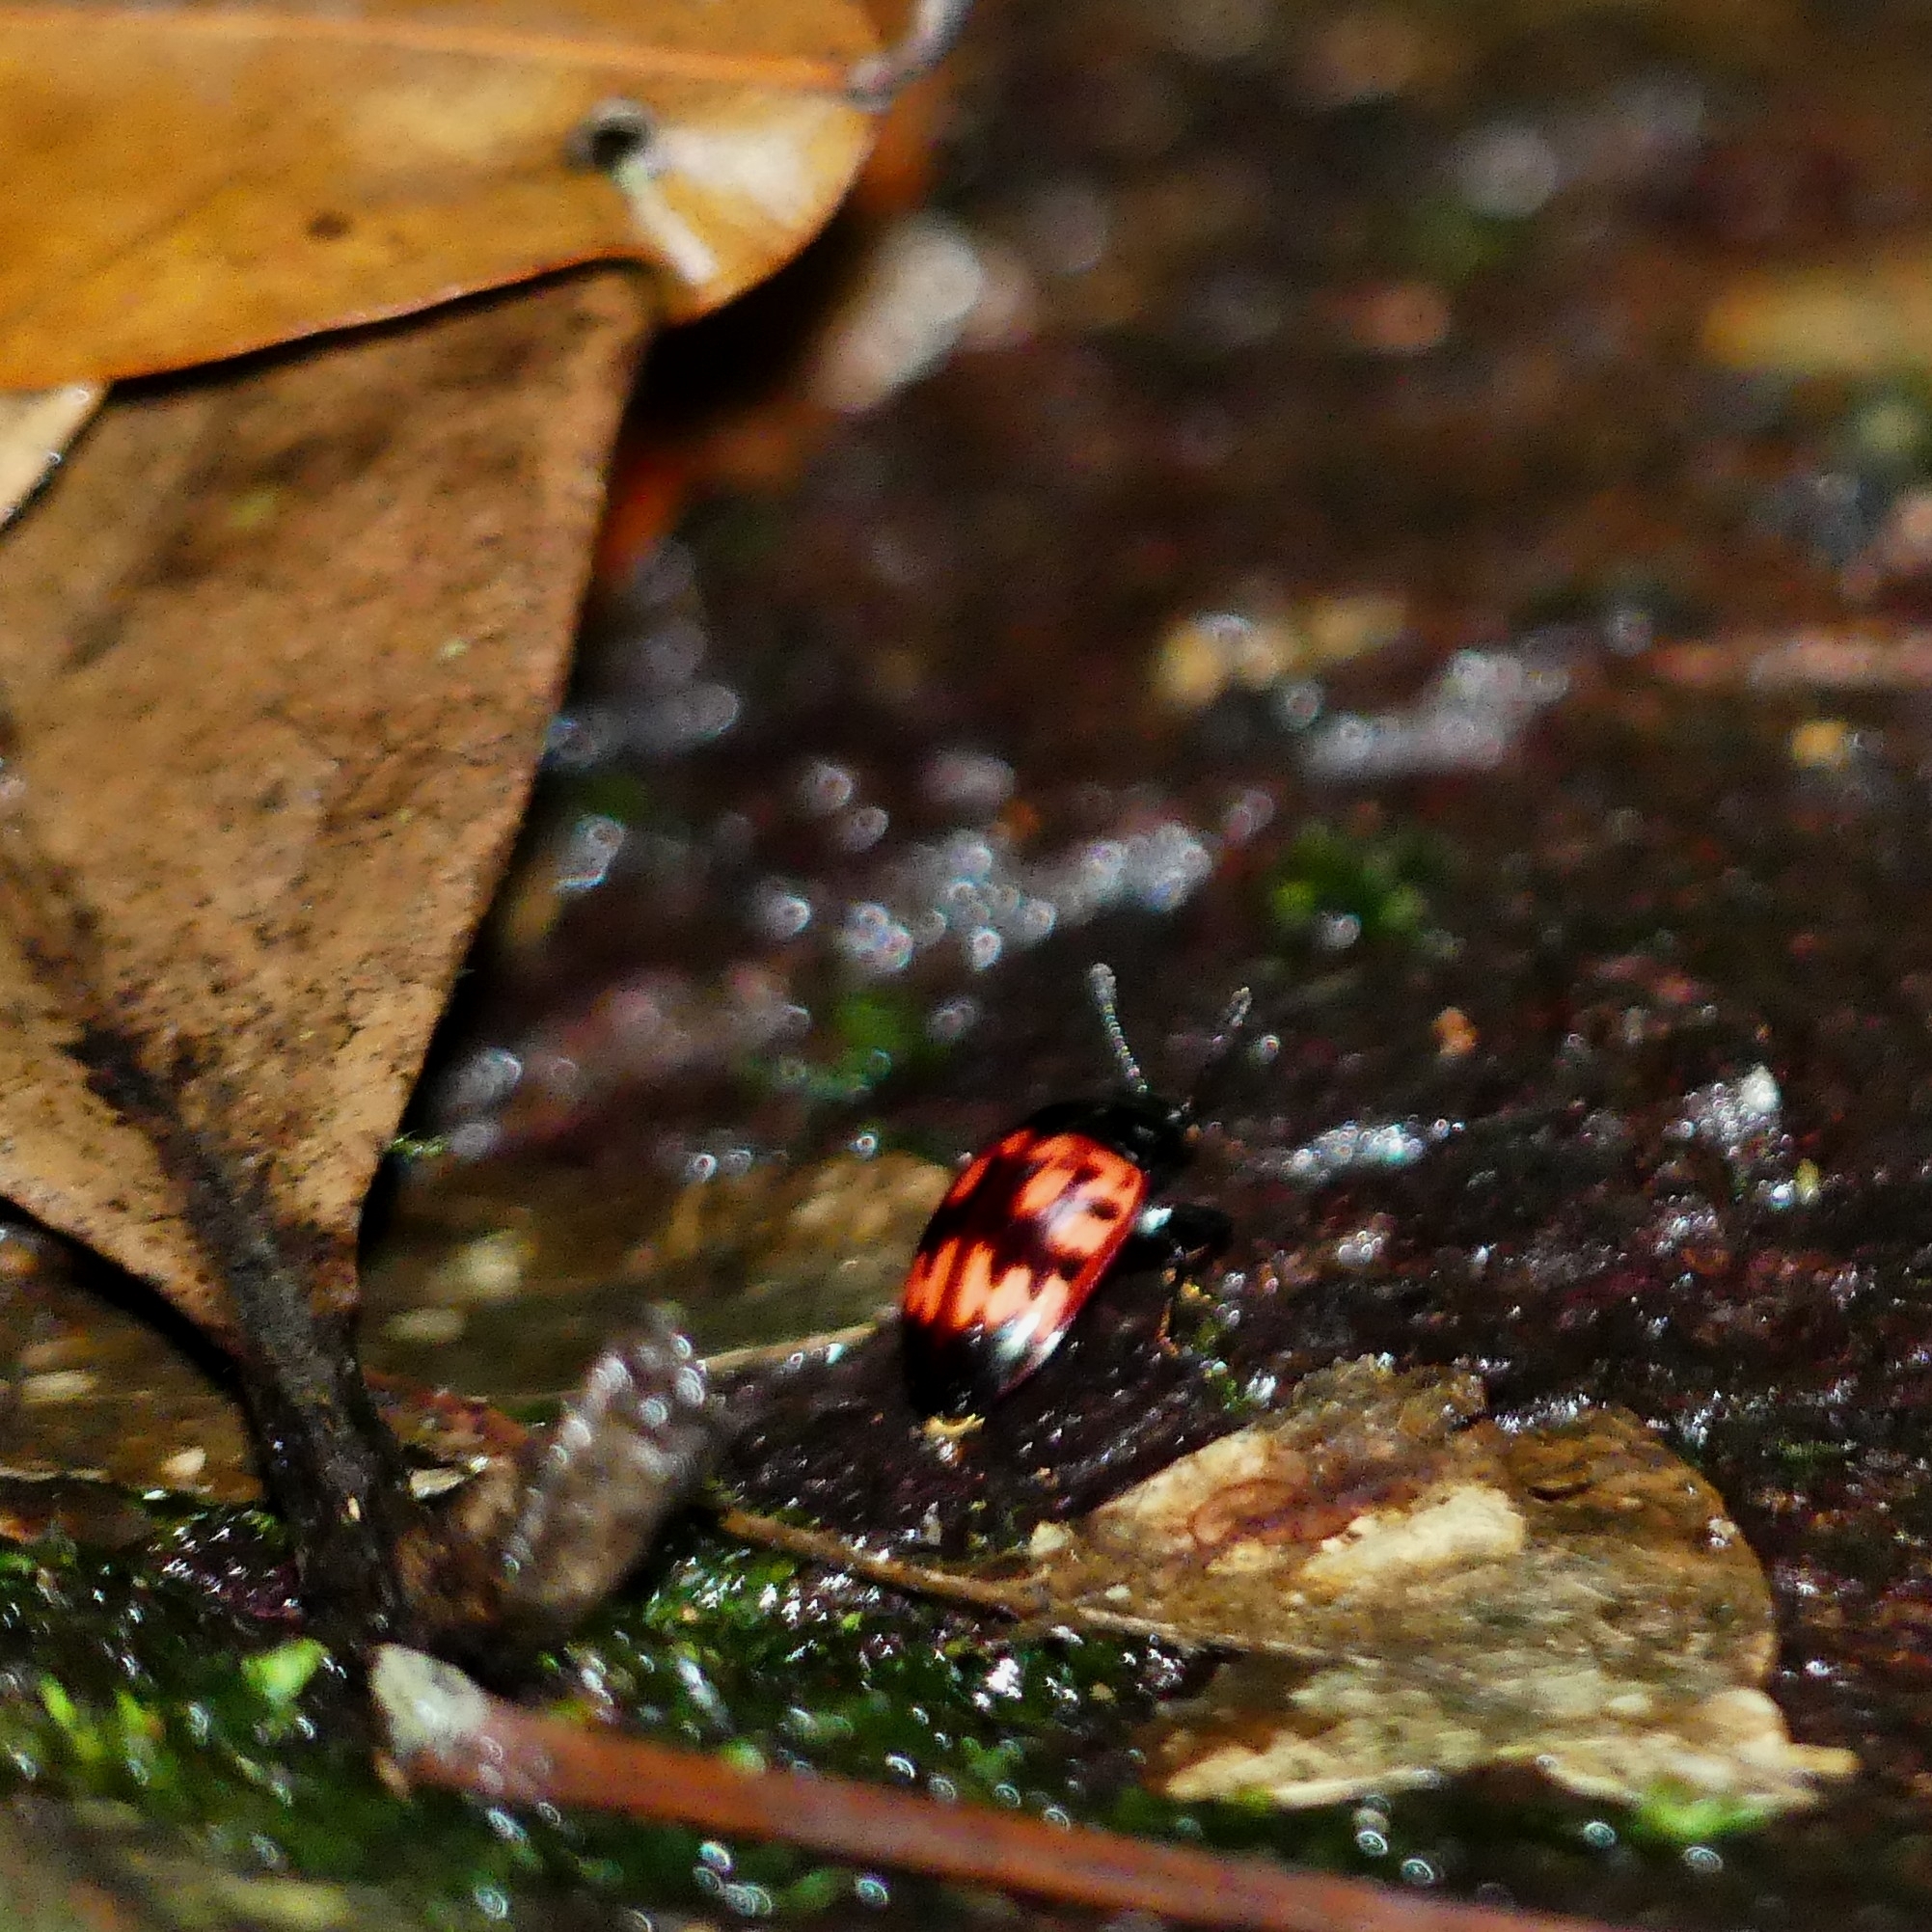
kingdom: Animalia
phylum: Arthropoda
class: Insecta
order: Coleoptera
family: Erotylidae
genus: Iphiclus
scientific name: Iphiclus ramosus
